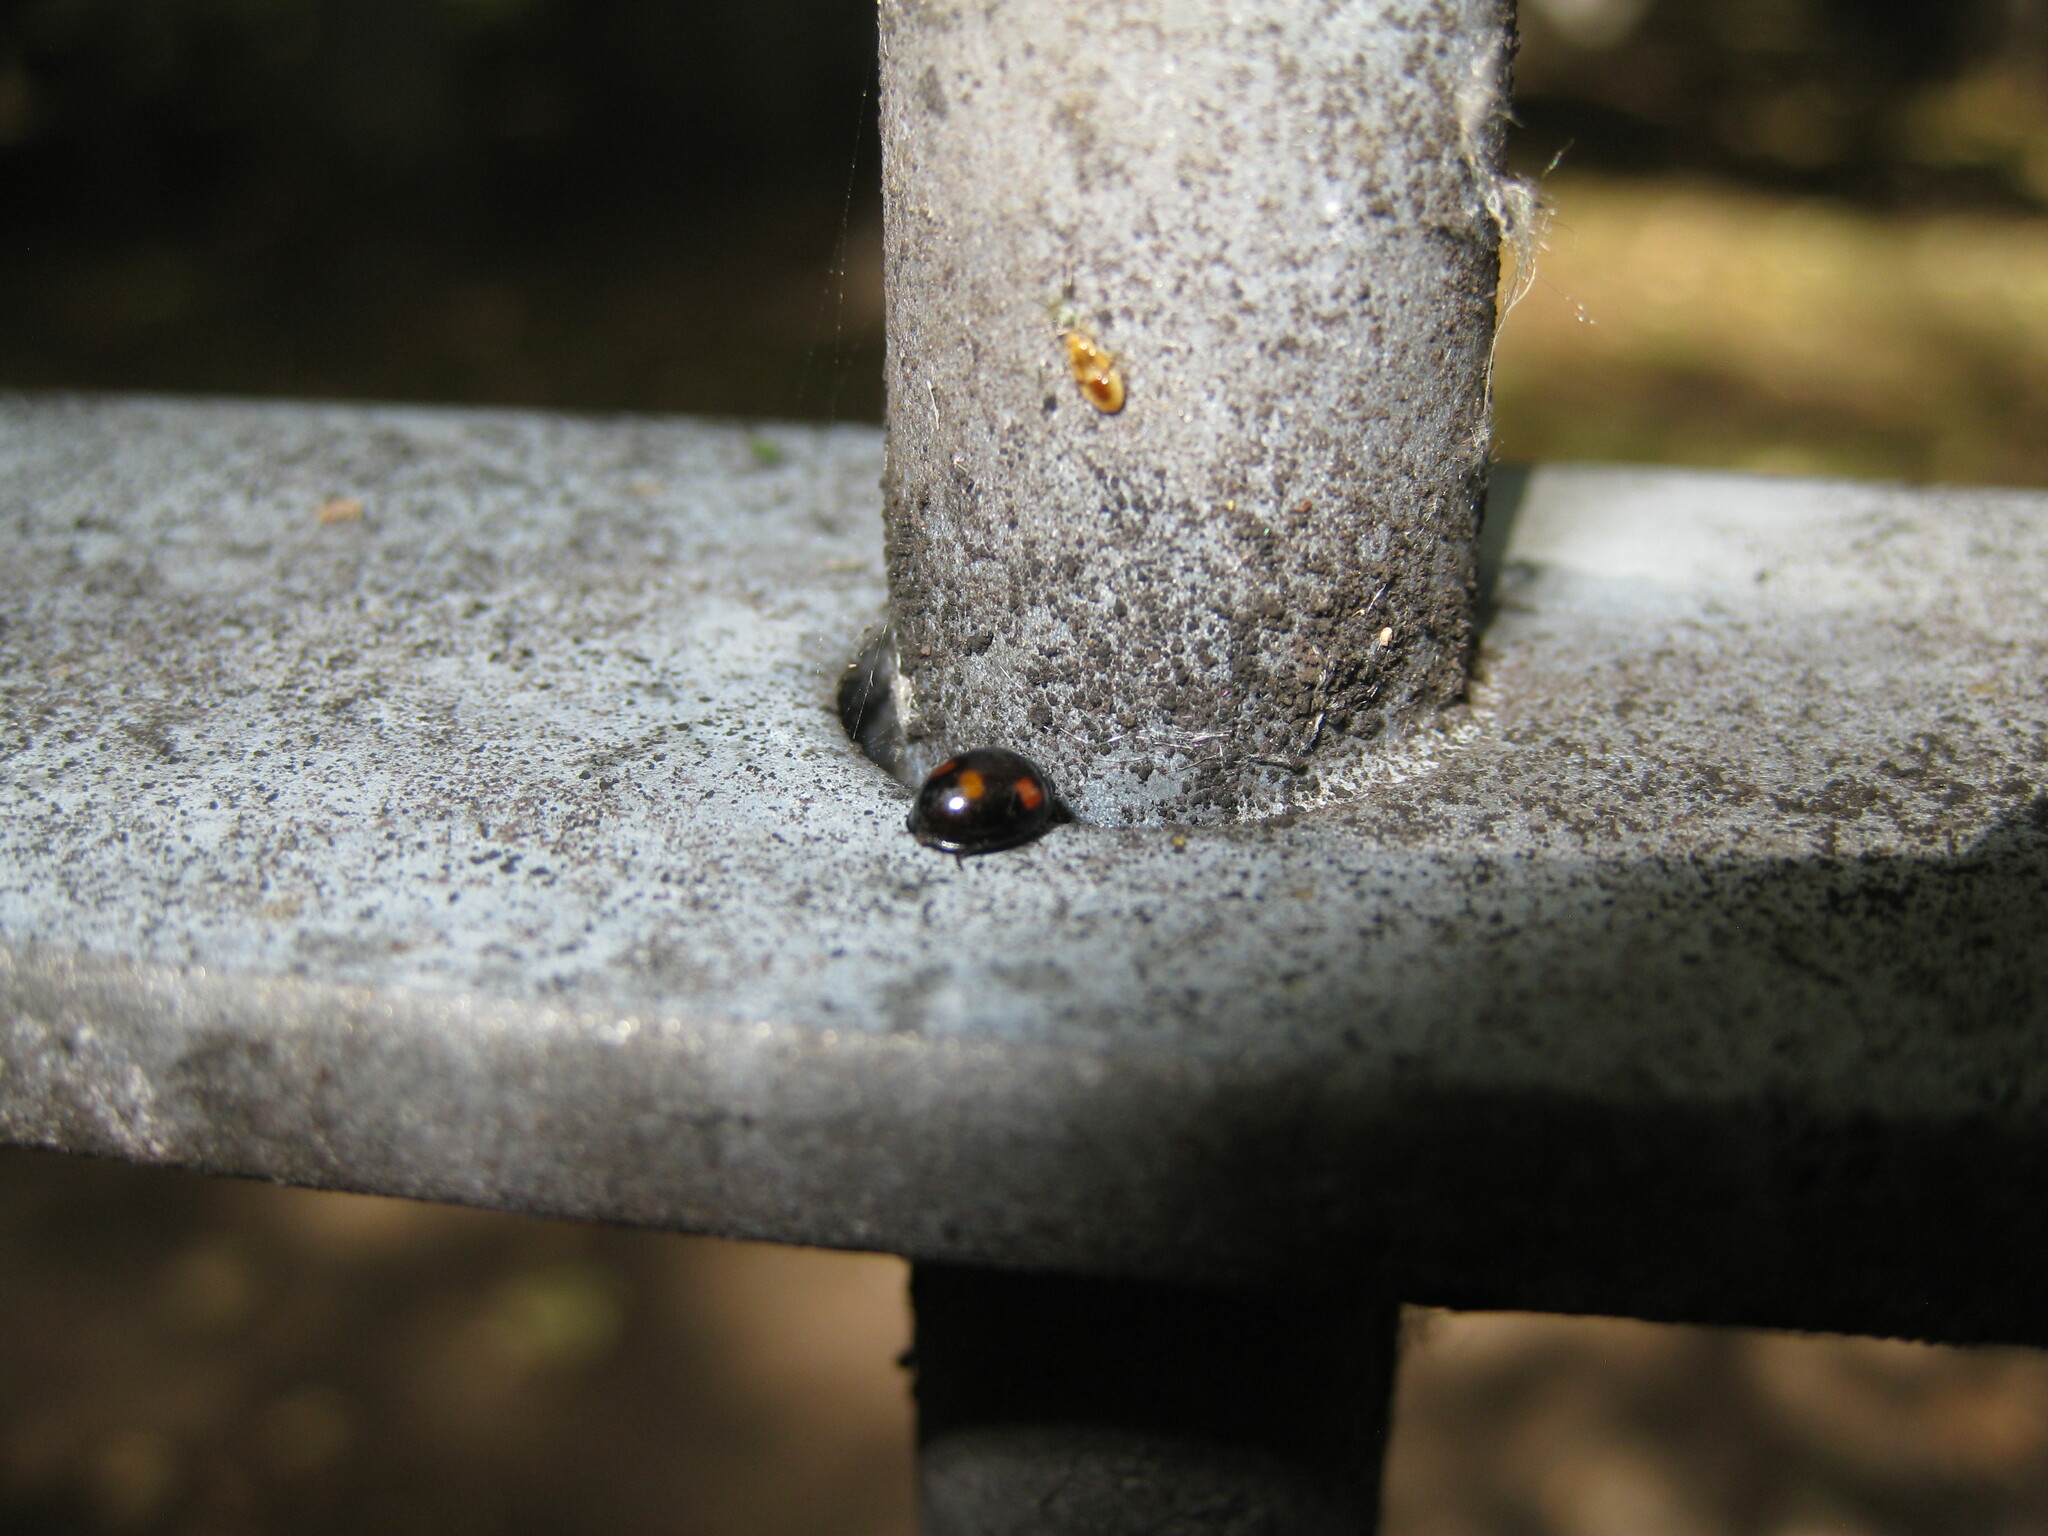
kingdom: Animalia
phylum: Arthropoda
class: Insecta
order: Coleoptera
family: Coccinellidae
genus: Brumus
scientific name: Brumus quadripustulatus
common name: Ladybird beetle
